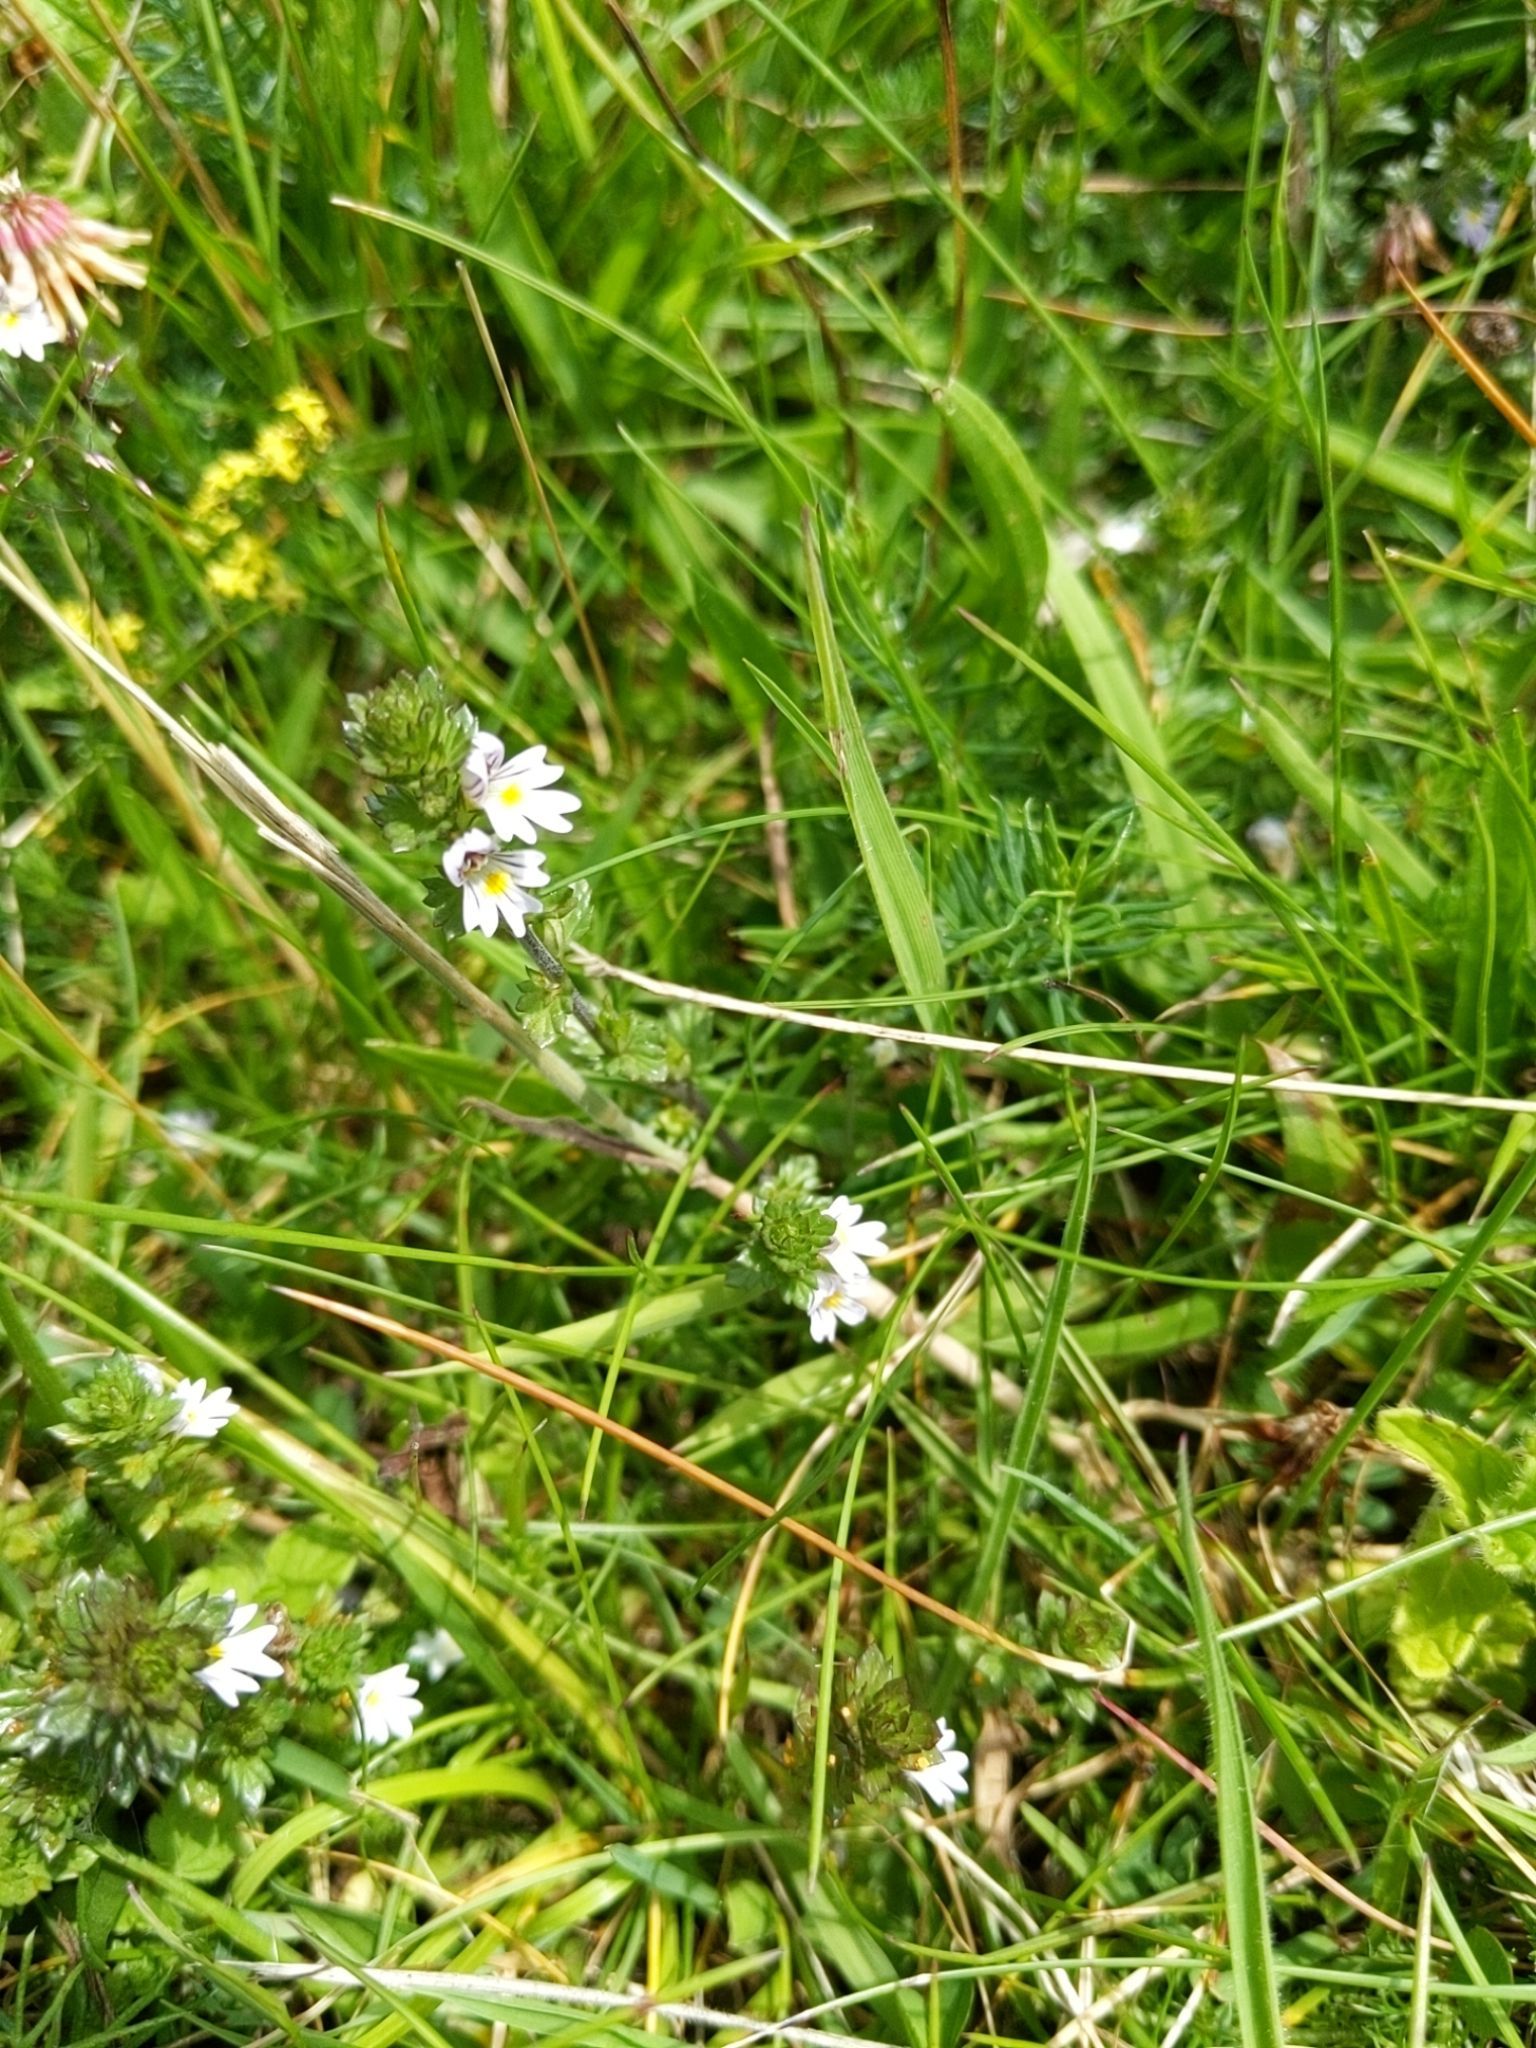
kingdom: Plantae
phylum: Tracheophyta
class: Magnoliopsida
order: Lamiales
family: Orobanchaceae
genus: Euphrasia
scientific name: Euphrasia nemorosa
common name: Common eyebright
